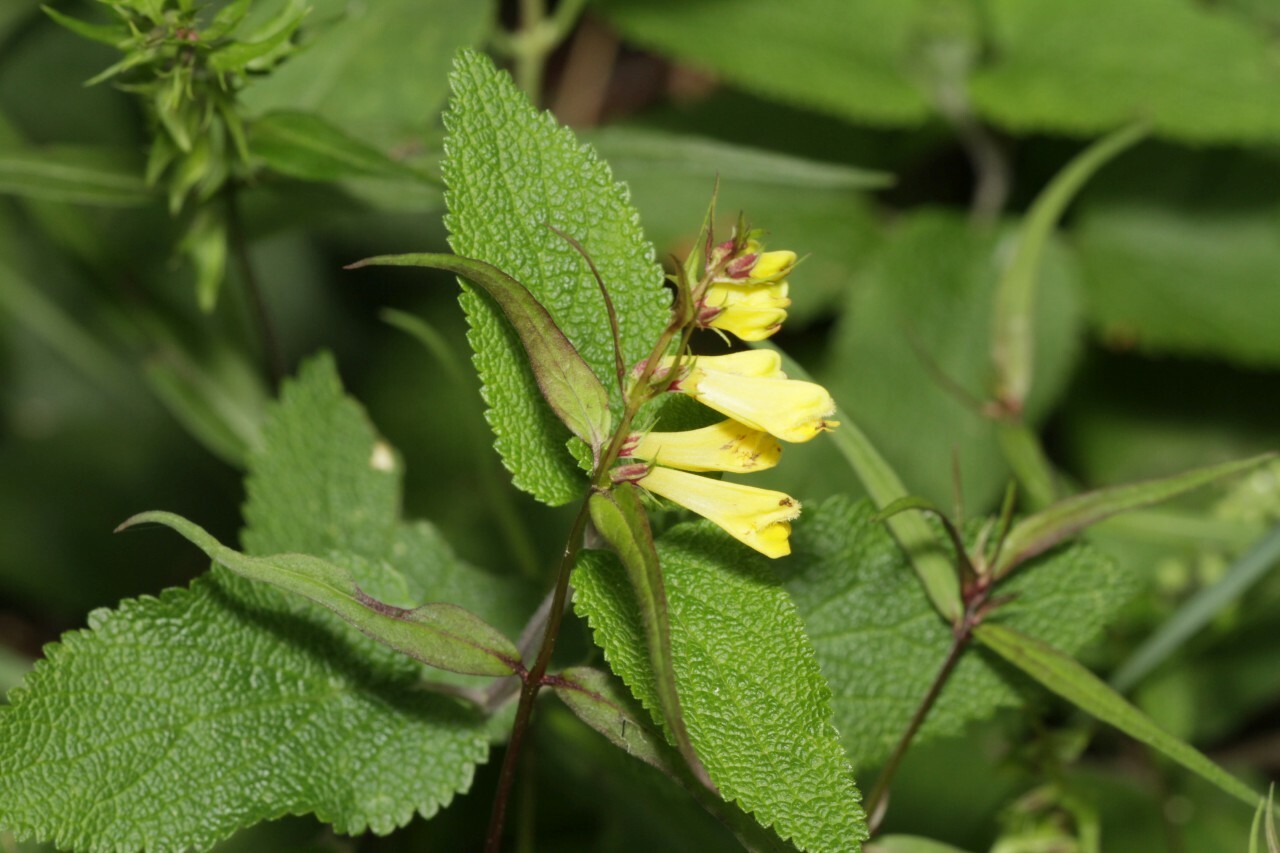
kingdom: Plantae
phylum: Tracheophyta
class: Magnoliopsida
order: Lamiales
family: Orobanchaceae
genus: Melampyrum
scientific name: Melampyrum pratense
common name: Common cow-wheat
